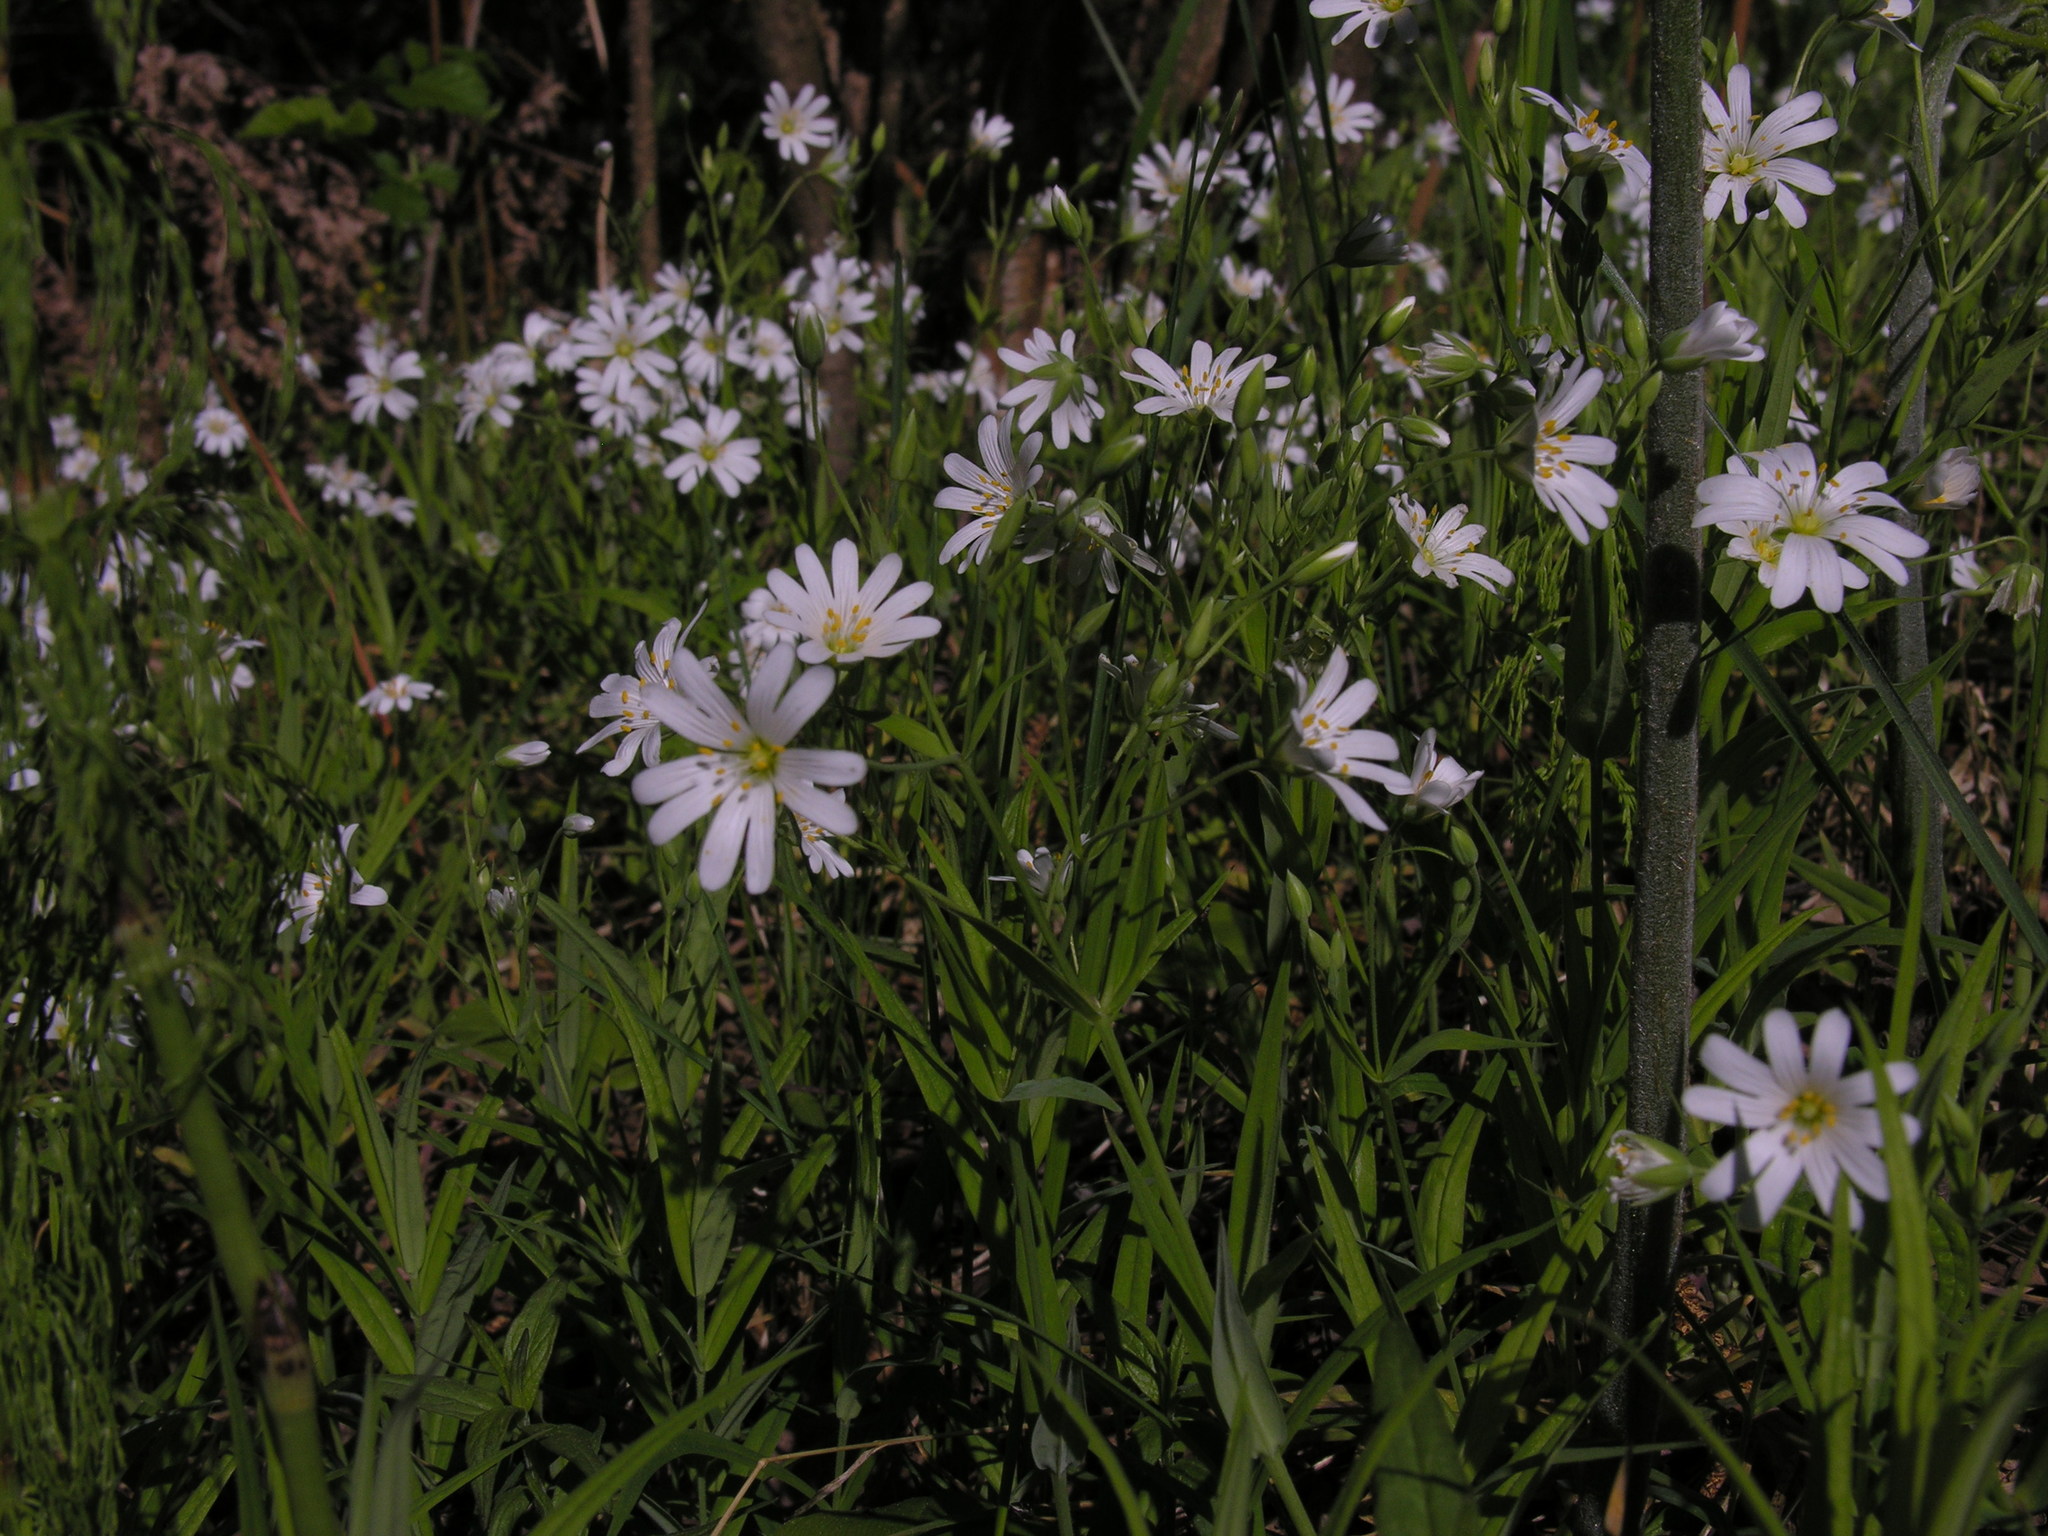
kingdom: Plantae
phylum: Tracheophyta
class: Magnoliopsida
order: Caryophyllales
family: Caryophyllaceae
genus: Rabelera
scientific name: Rabelera holostea
